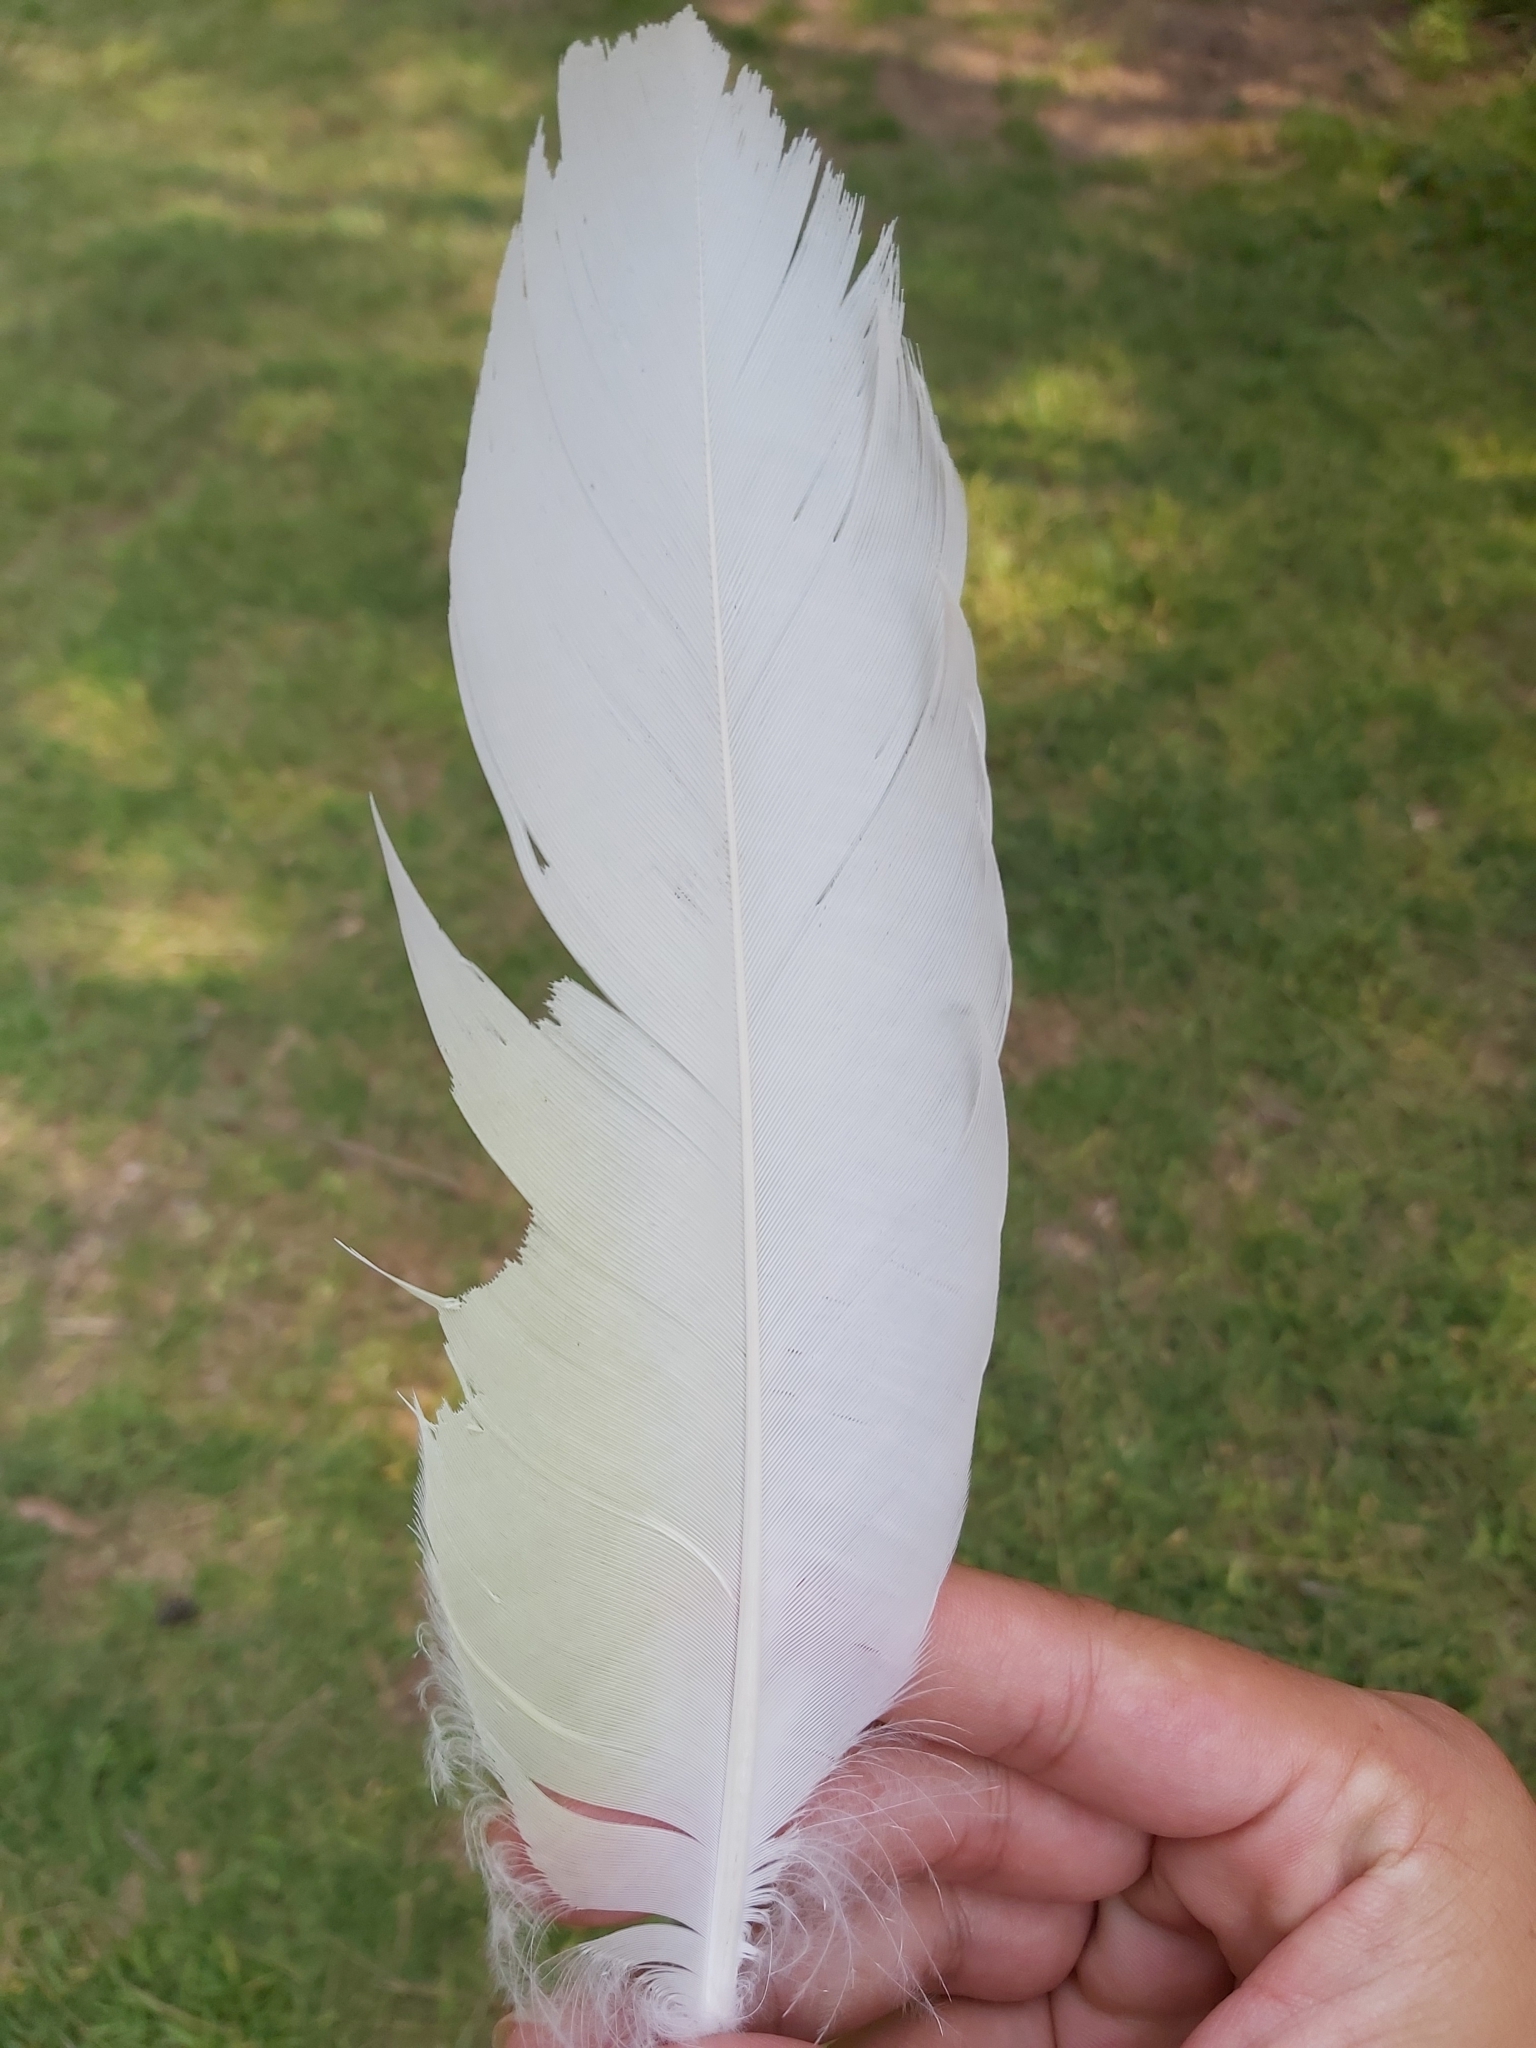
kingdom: Animalia
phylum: Chordata
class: Aves
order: Psittaciformes
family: Psittacidae
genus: Cacatua
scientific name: Cacatua galerita
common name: Sulphur-crested cockatoo
